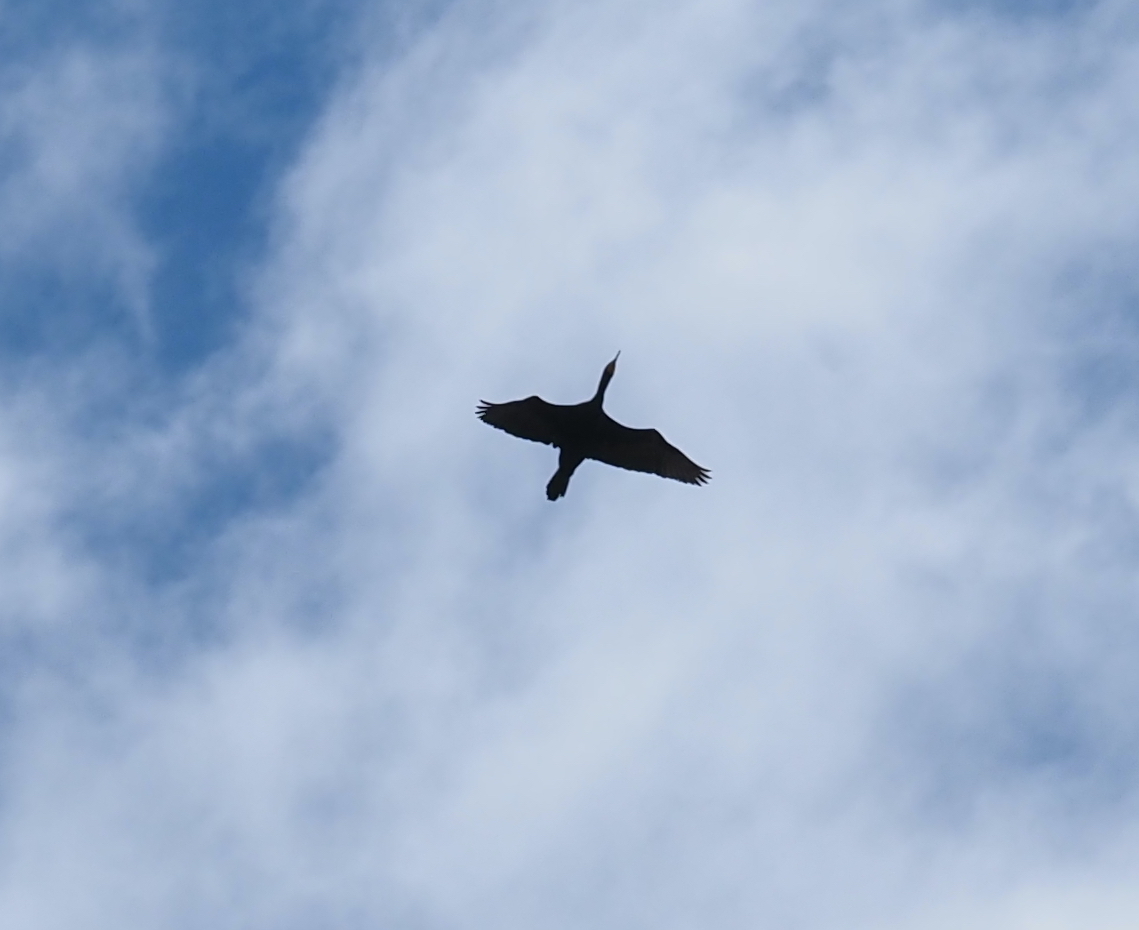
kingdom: Animalia
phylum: Chordata
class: Aves
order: Suliformes
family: Phalacrocoracidae
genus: Phalacrocorax
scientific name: Phalacrocorax auritus
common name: Double-crested cormorant
